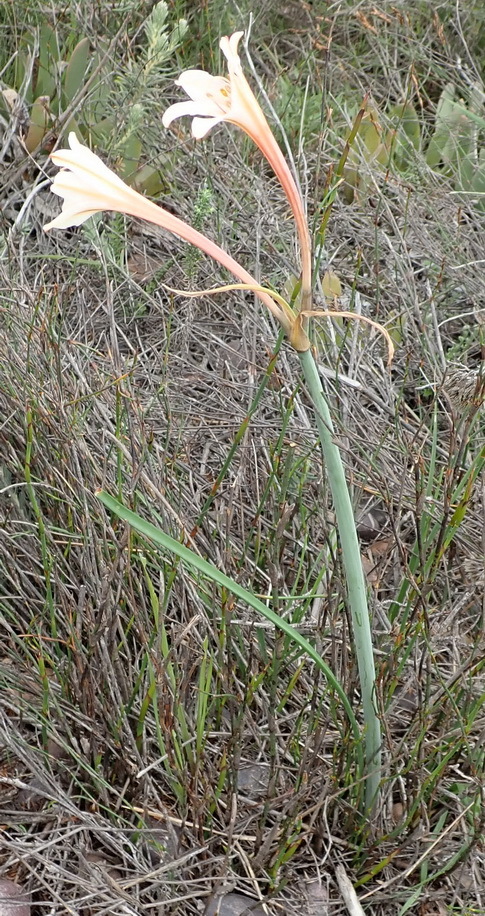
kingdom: Plantae
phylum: Tracheophyta
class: Liliopsida
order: Asparagales
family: Amaryllidaceae
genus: Cyrtanthus
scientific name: Cyrtanthus leptosiphon
